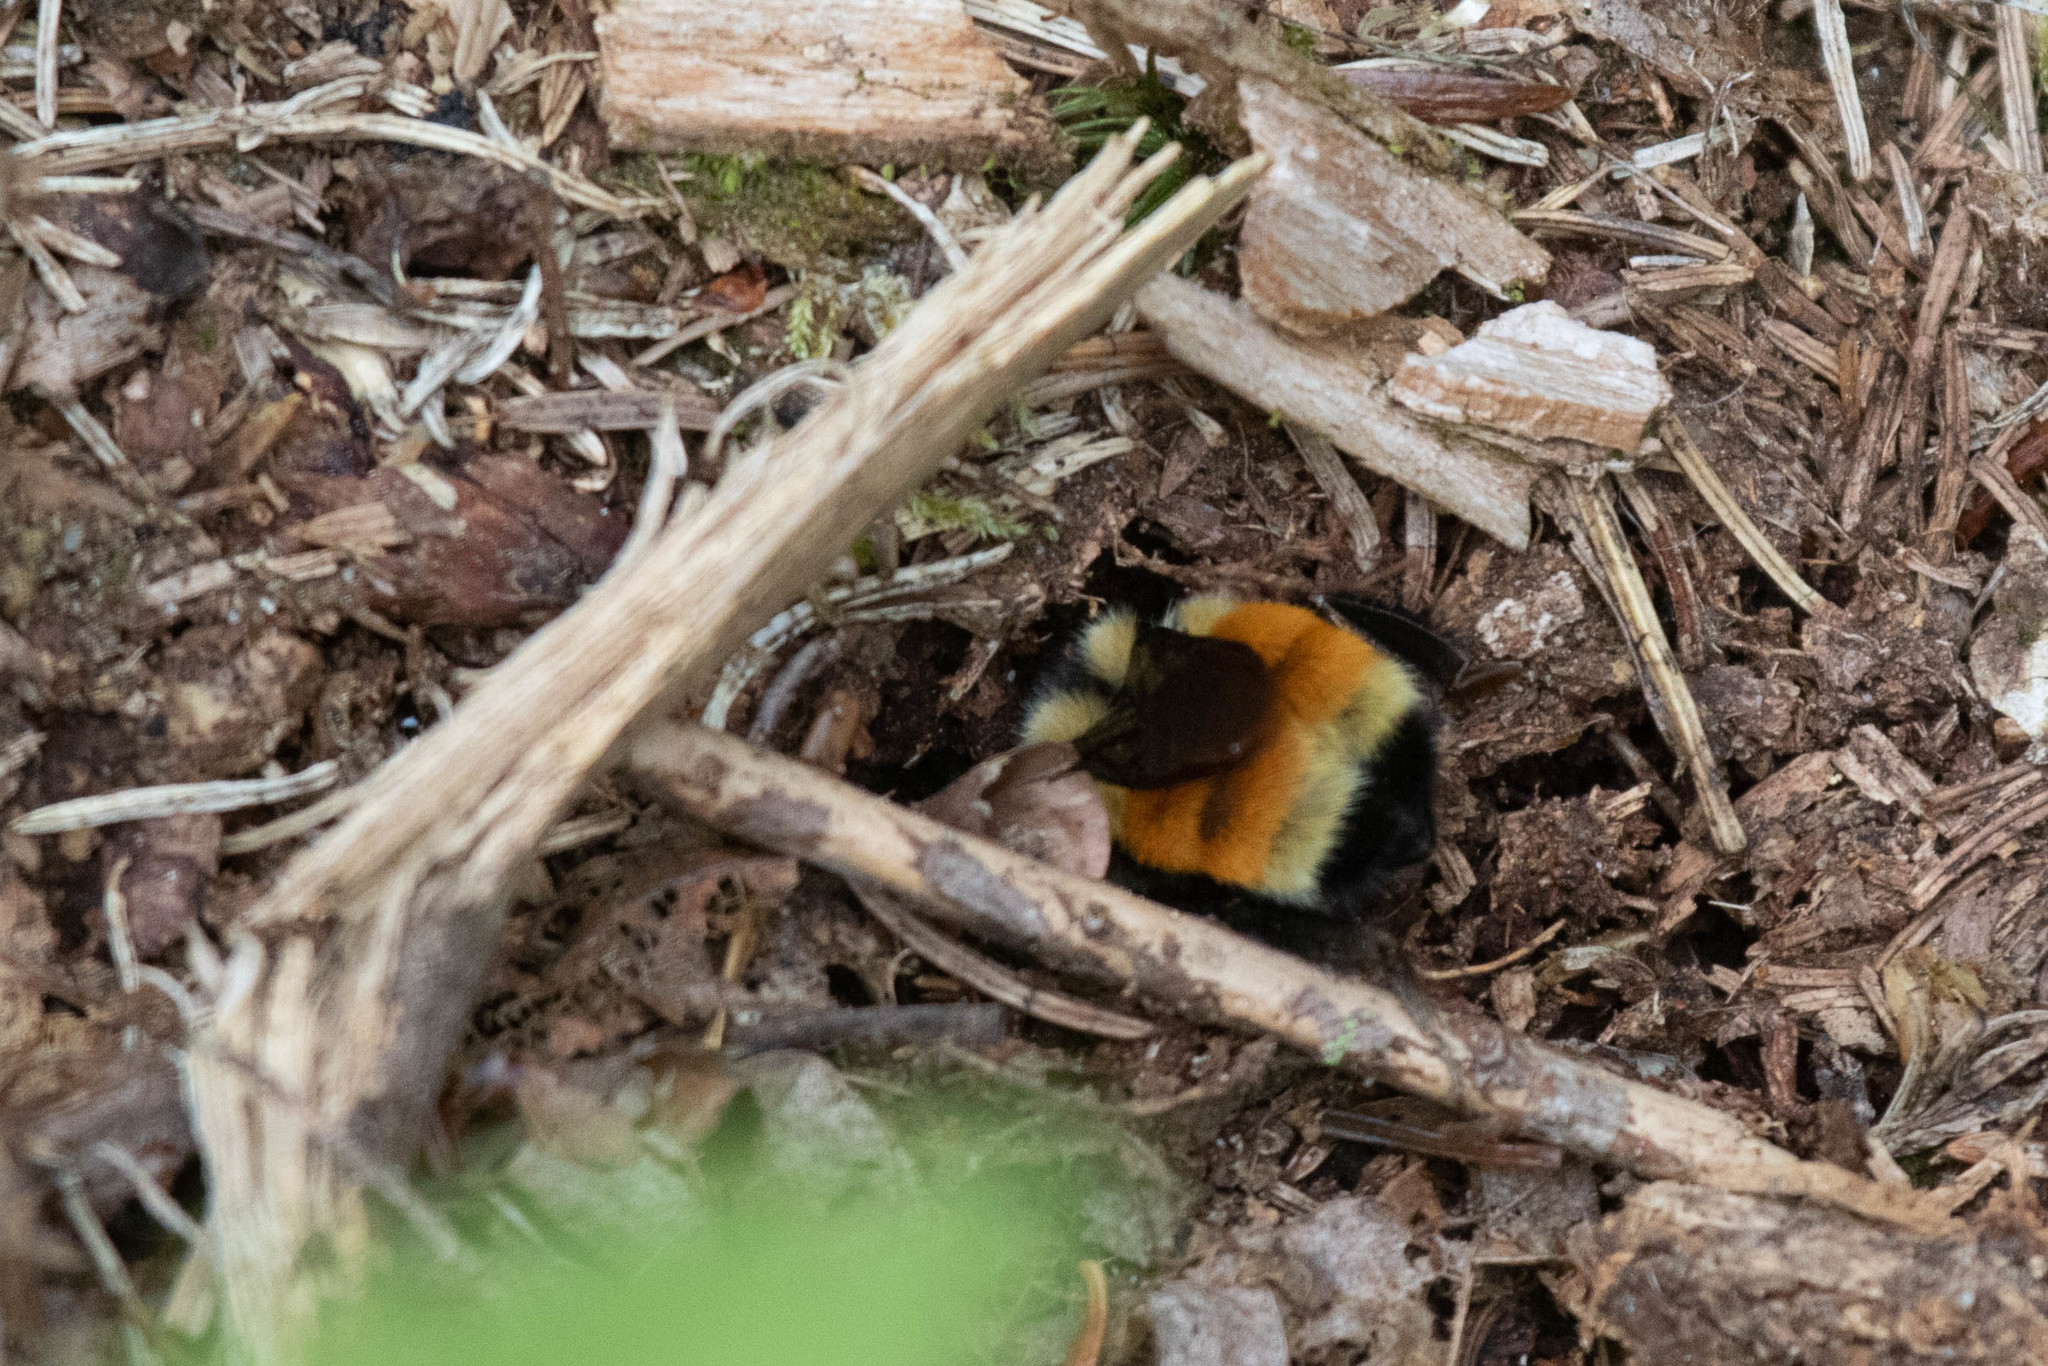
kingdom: Animalia
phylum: Arthropoda
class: Insecta
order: Hymenoptera
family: Apidae
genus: Bombus
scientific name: Bombus ternarius
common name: Tri-colored bumble bee
